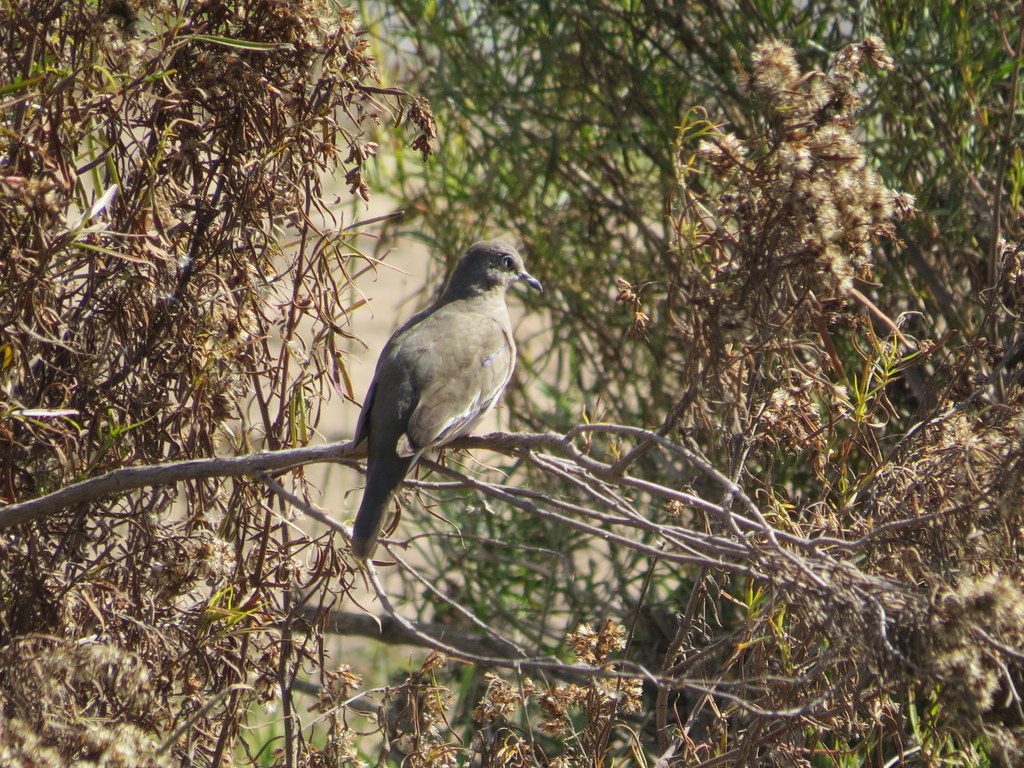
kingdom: Animalia
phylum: Chordata
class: Aves
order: Columbiformes
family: Columbidae
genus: Columbina
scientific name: Columbina picui
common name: Picui ground dove
